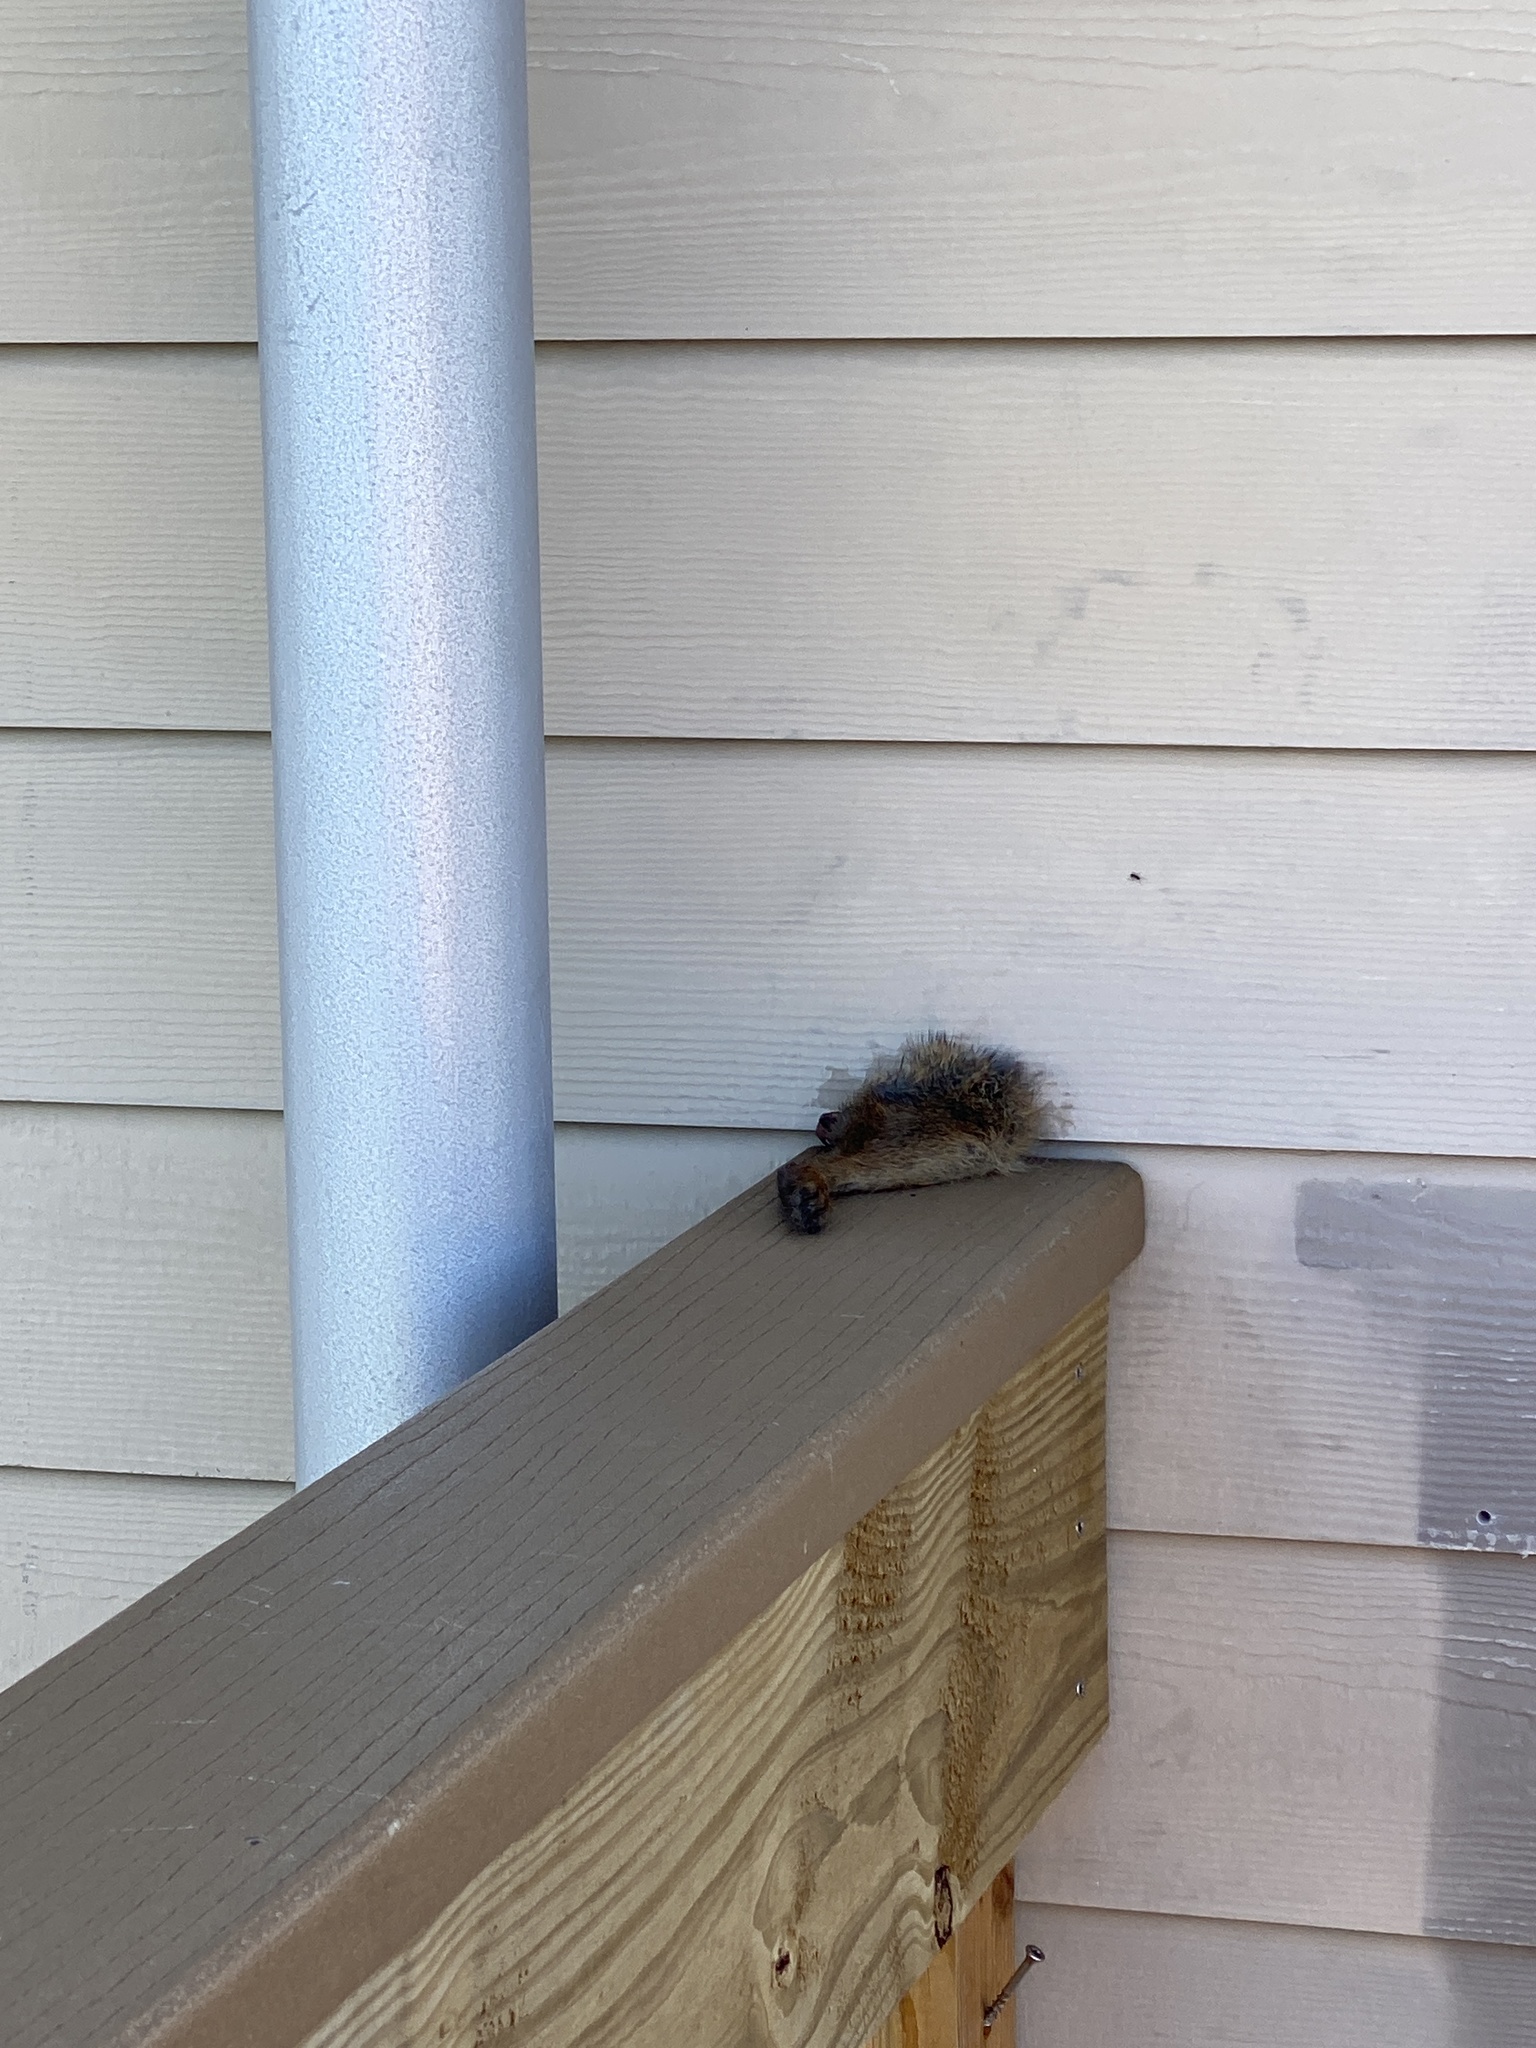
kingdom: Animalia
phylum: Chordata
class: Mammalia
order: Lagomorpha
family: Leporidae
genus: Sylvilagus
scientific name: Sylvilagus palustris
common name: Marsh rabbit
